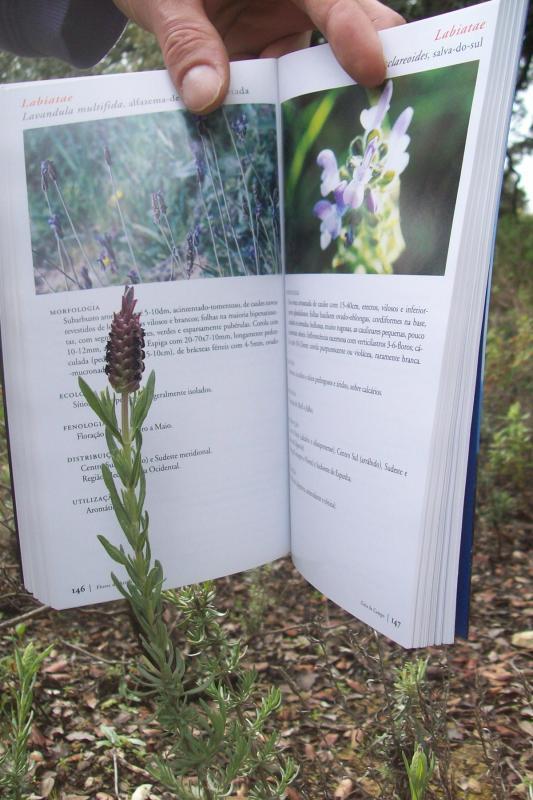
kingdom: Plantae
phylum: Tracheophyta
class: Magnoliopsida
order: Lamiales
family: Lamiaceae
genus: Lavandula
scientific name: Lavandula stoechas
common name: French lavender
